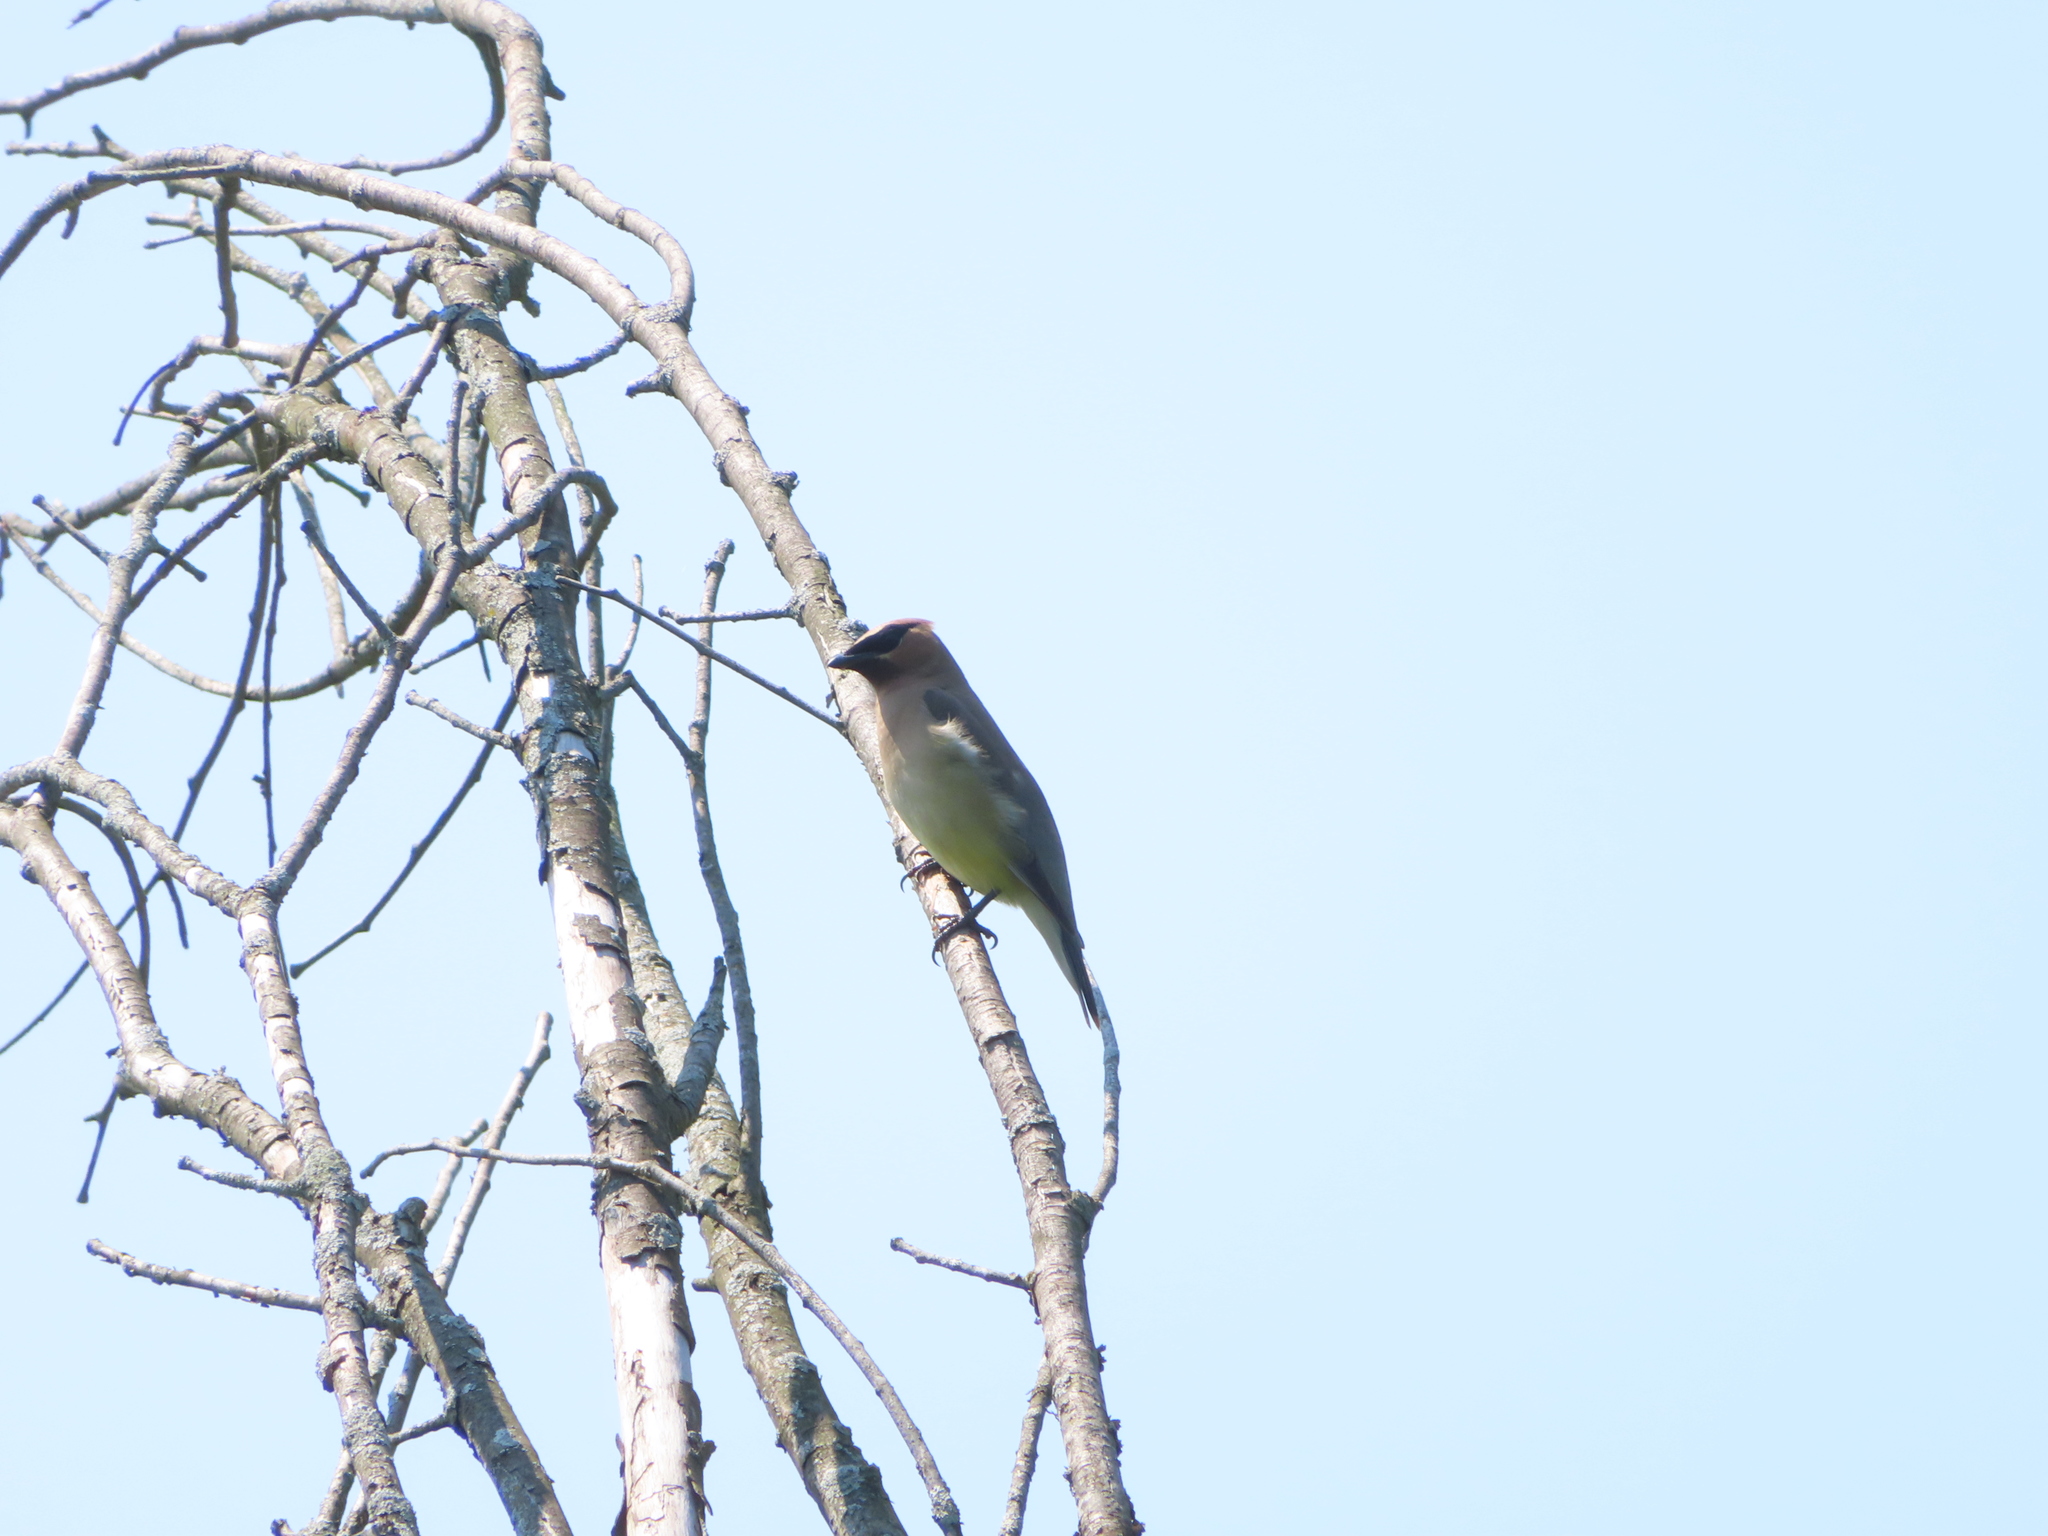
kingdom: Animalia
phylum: Chordata
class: Aves
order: Passeriformes
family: Bombycillidae
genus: Bombycilla
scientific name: Bombycilla cedrorum
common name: Cedar waxwing
